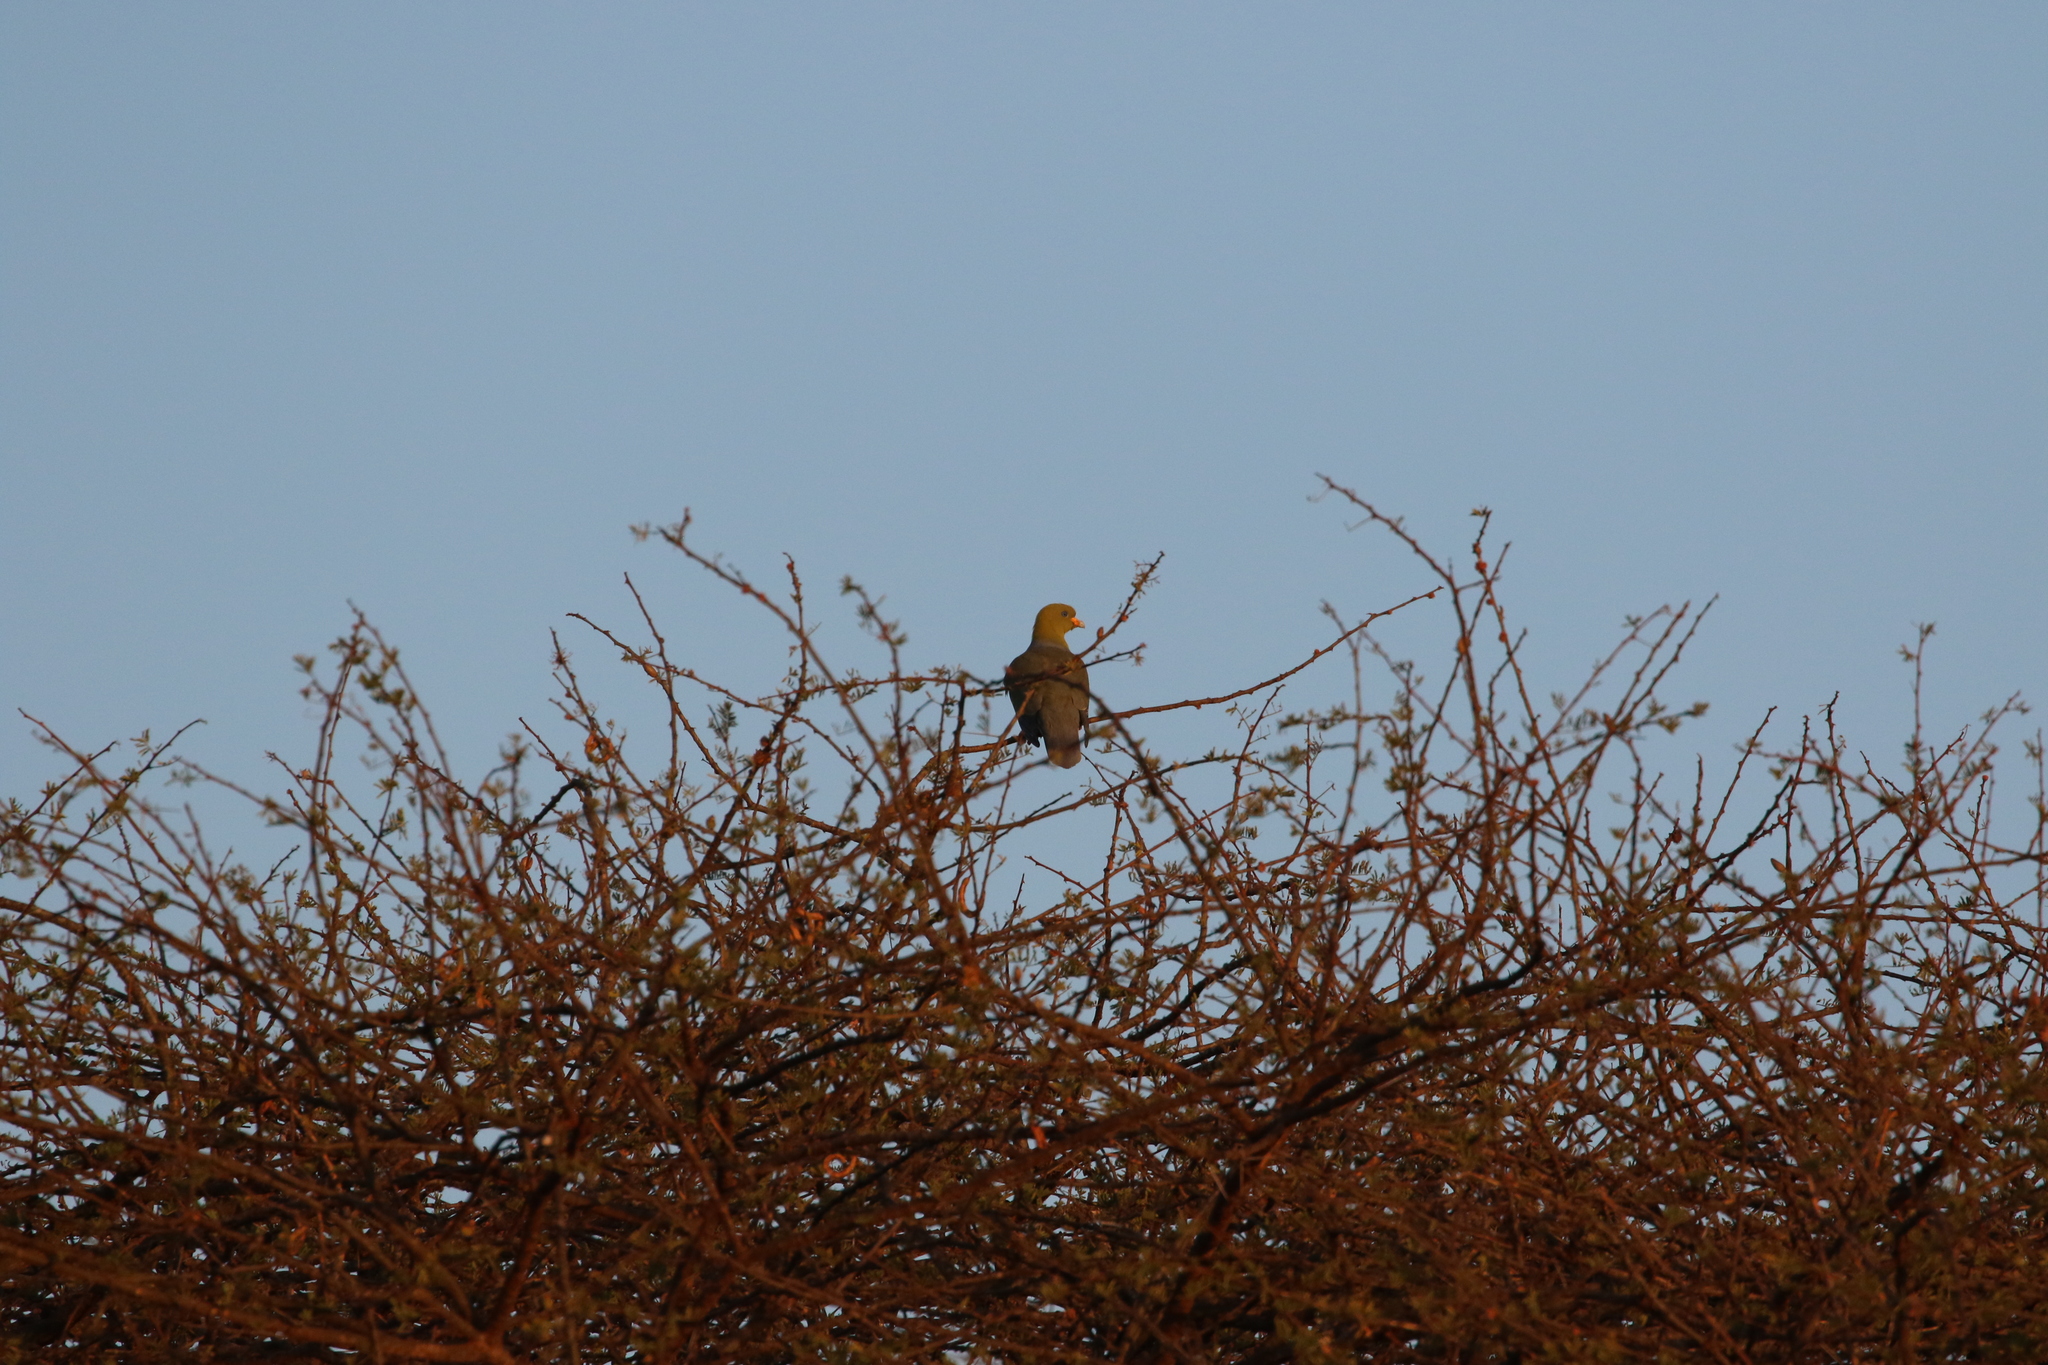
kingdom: Animalia
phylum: Chordata
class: Aves
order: Columbiformes
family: Columbidae
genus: Treron
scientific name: Treron calvus
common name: African green pigeon
